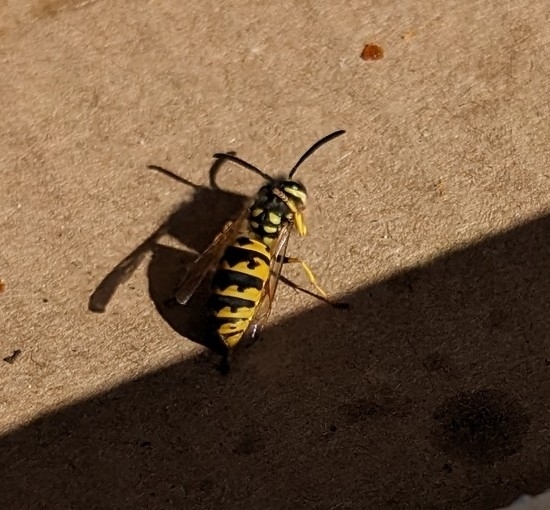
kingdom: Animalia
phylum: Arthropoda
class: Insecta
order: Hymenoptera
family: Vespidae
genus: Vespula
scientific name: Vespula germanica
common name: German wasp
